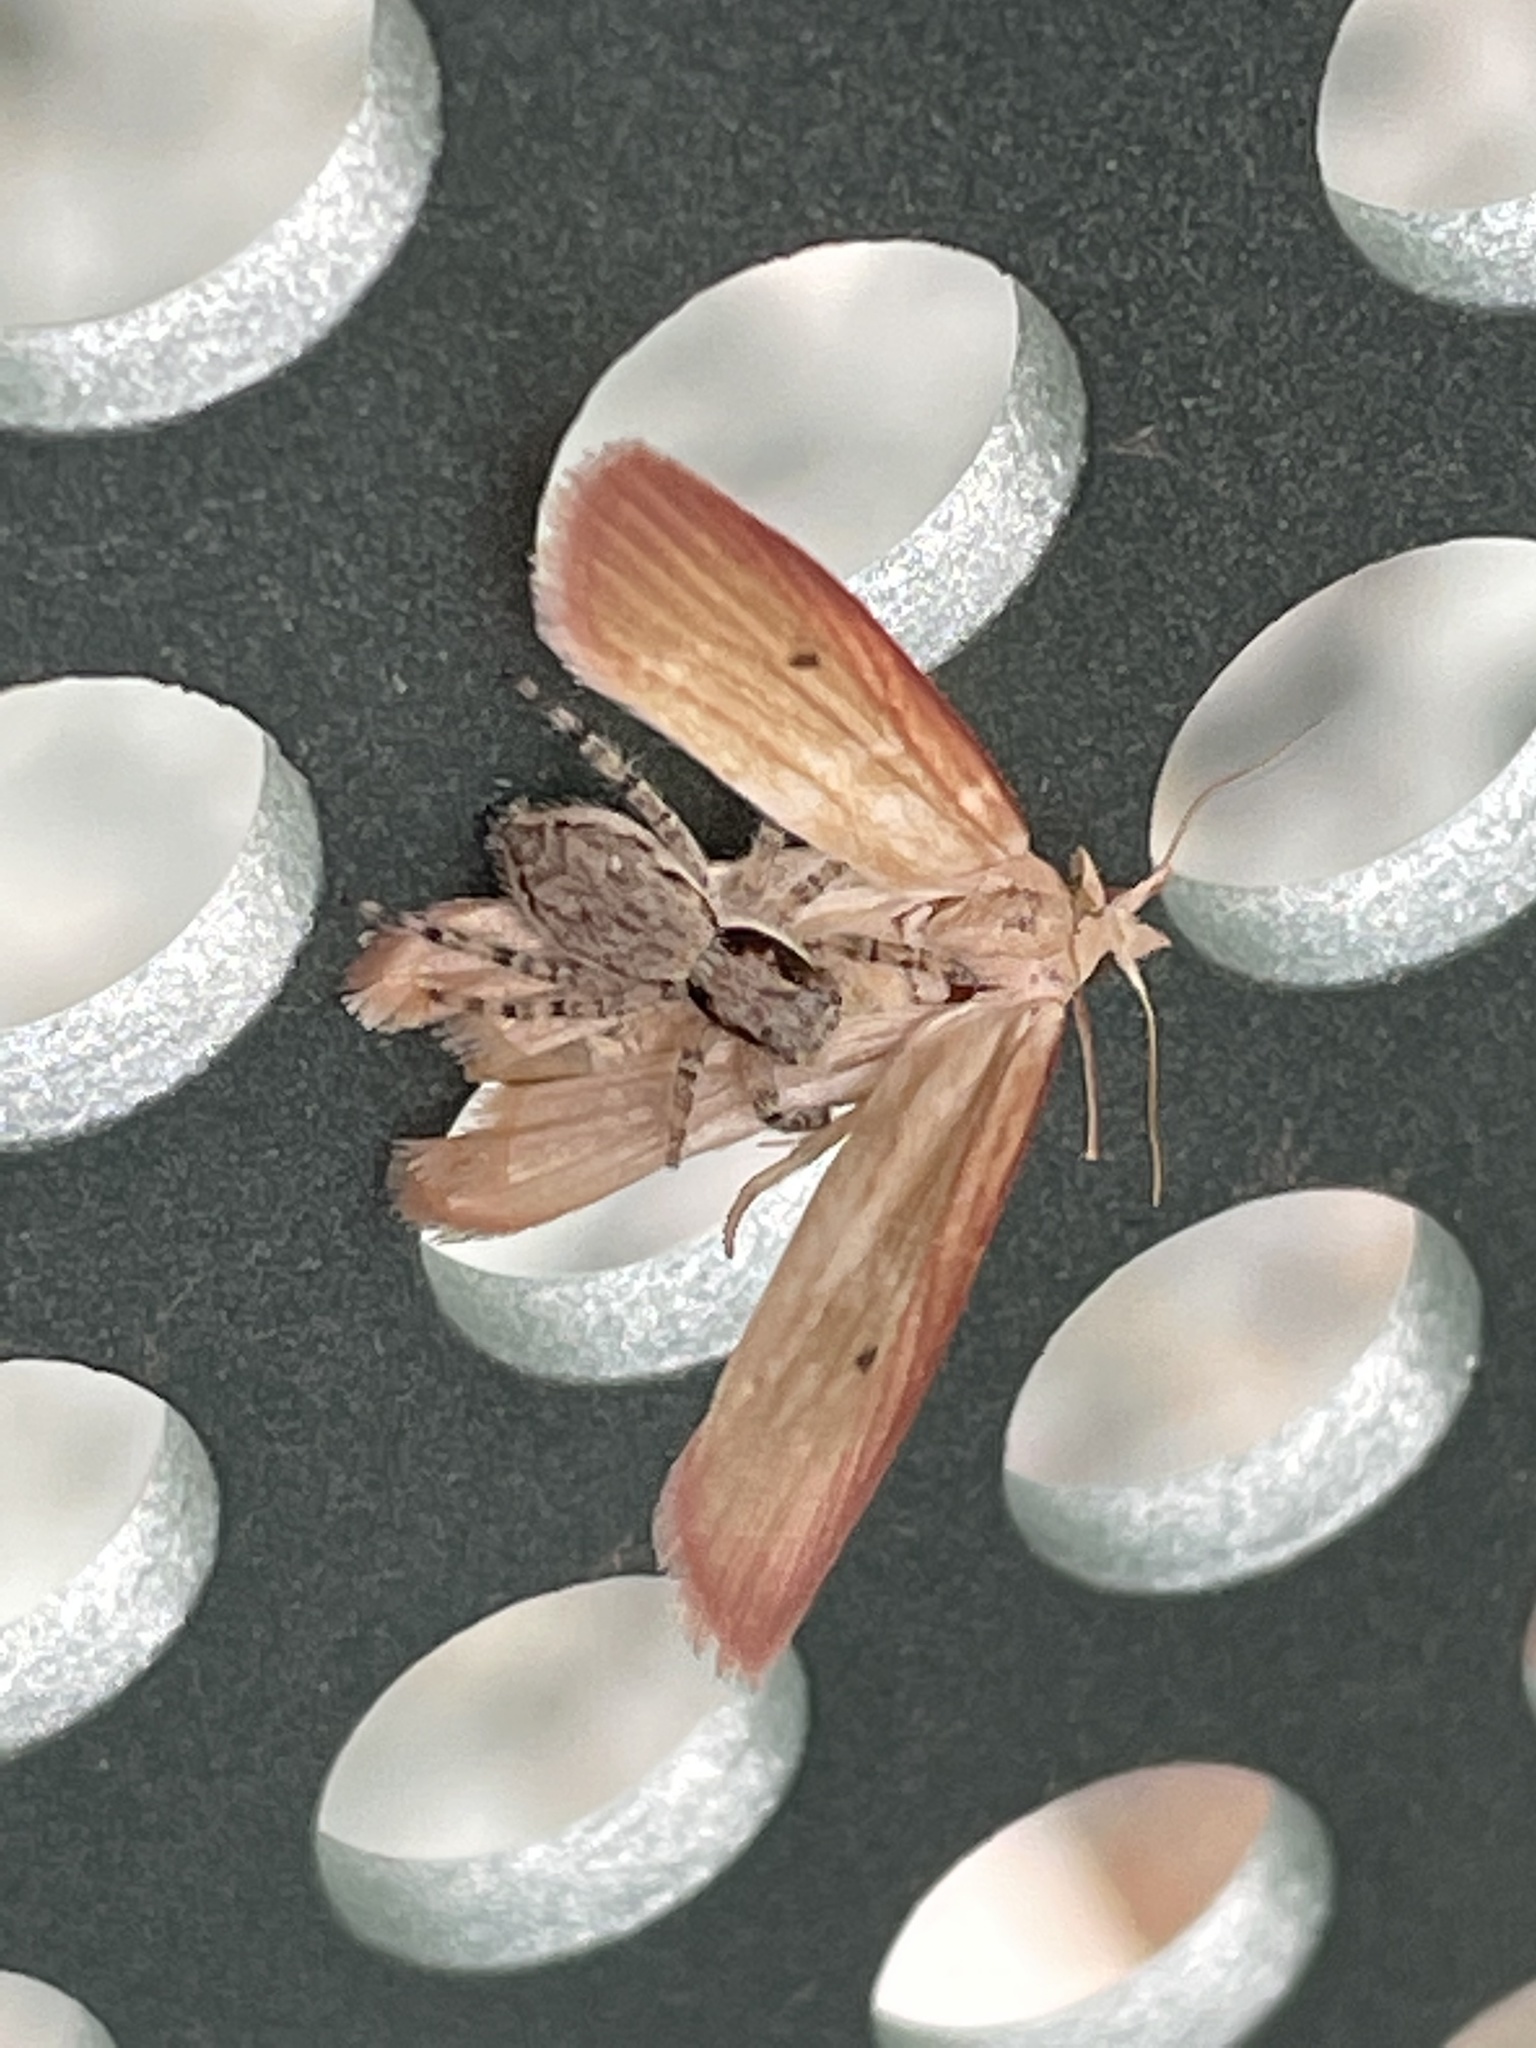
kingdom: Animalia
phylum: Arthropoda
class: Arachnida
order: Araneae
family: Salticidae
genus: Menemerus
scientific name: Menemerus bivittatus
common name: Gray wall jumper
